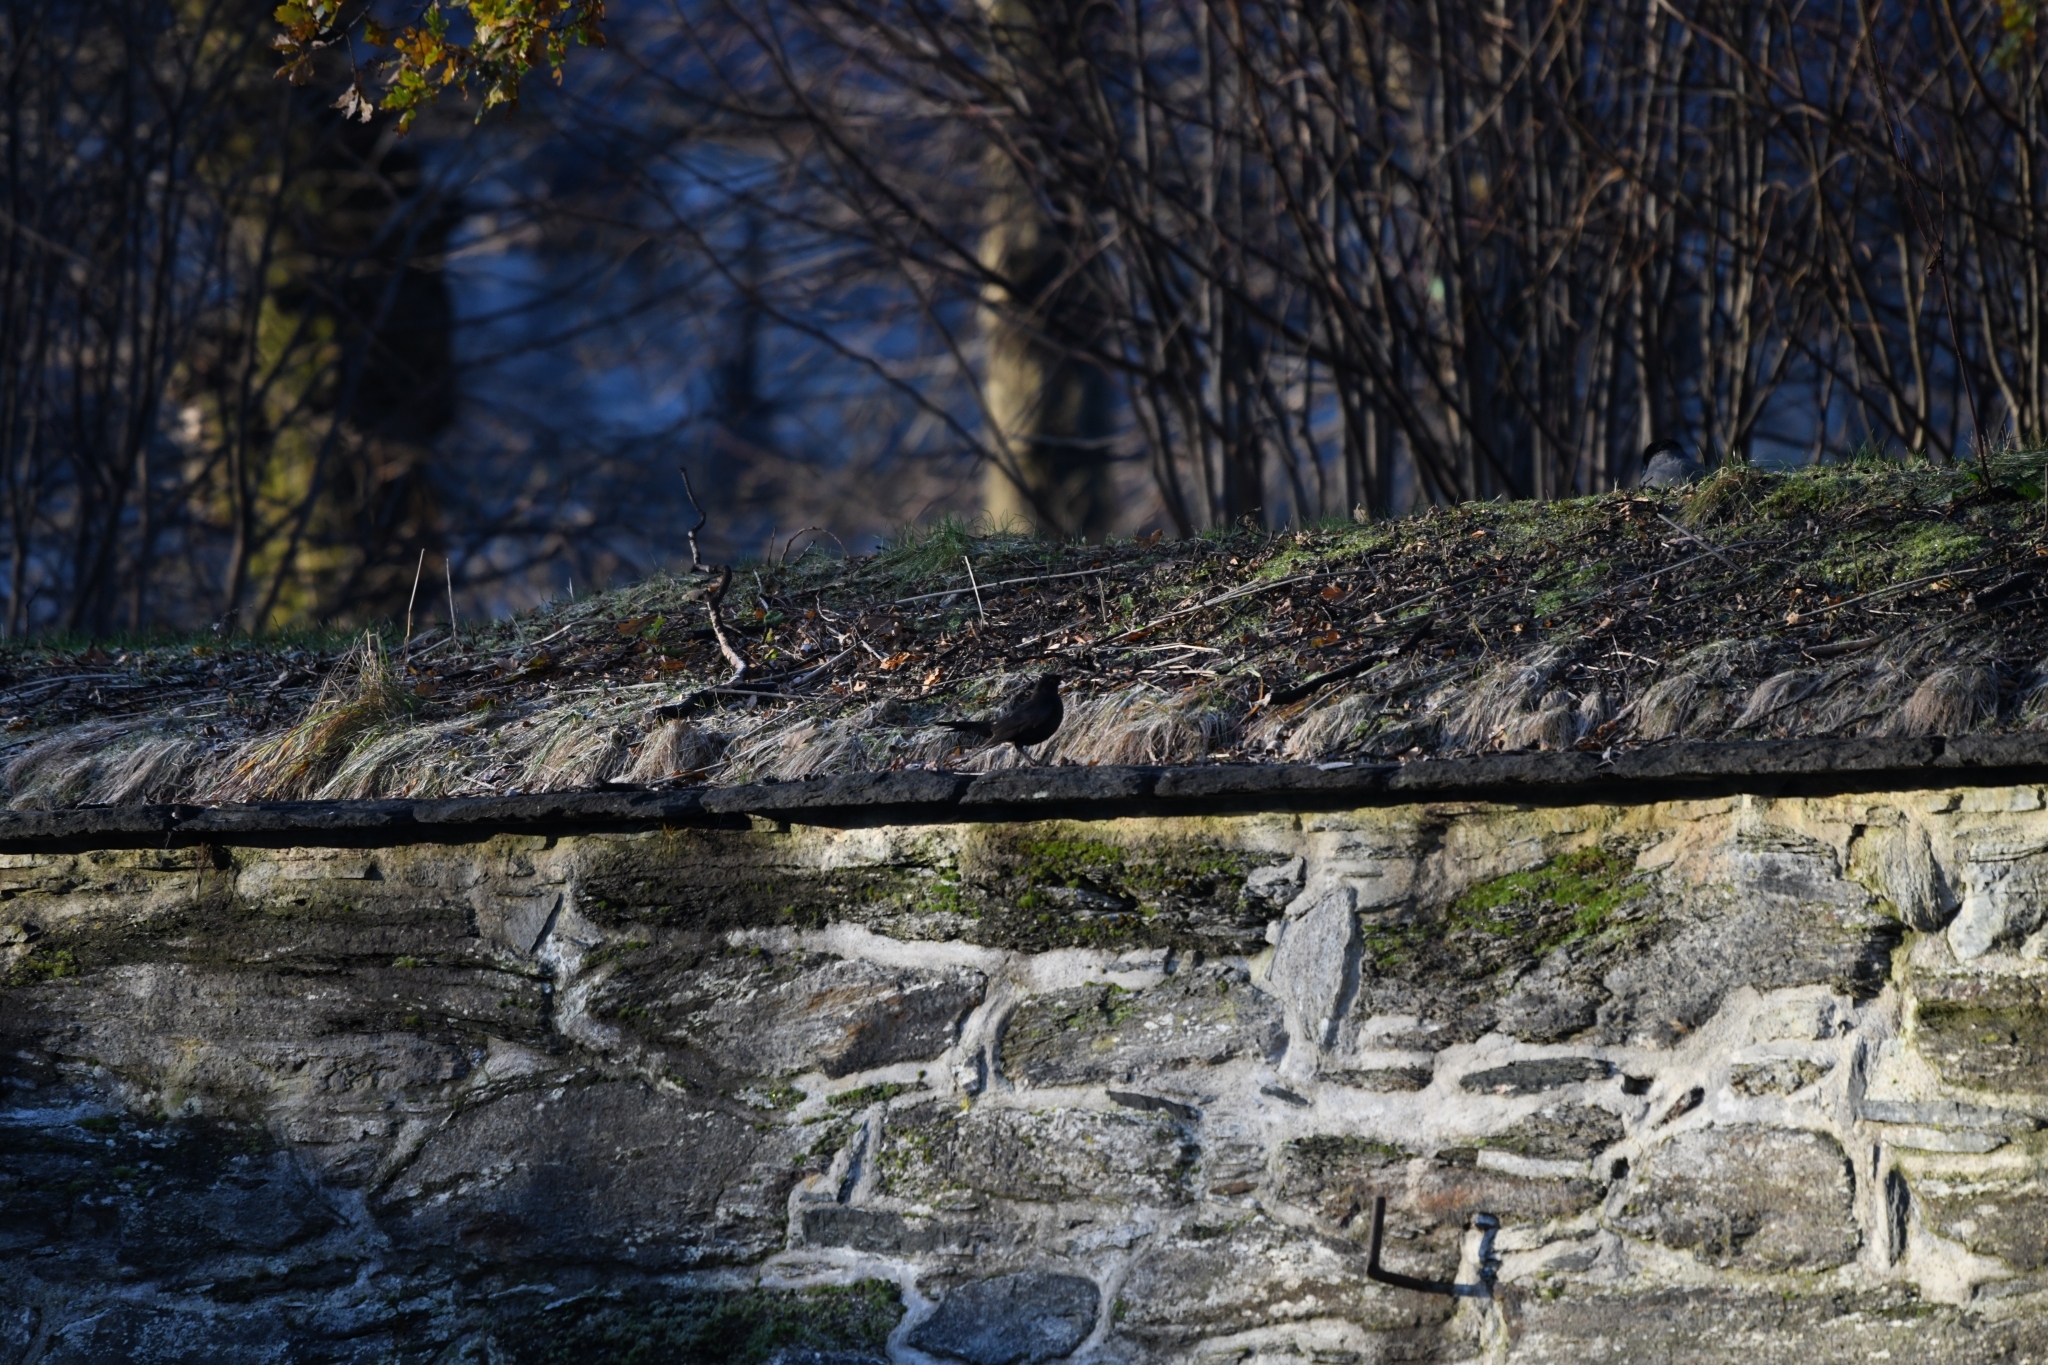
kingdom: Animalia
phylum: Chordata
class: Aves
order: Passeriformes
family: Turdidae
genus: Turdus
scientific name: Turdus merula
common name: Common blackbird
